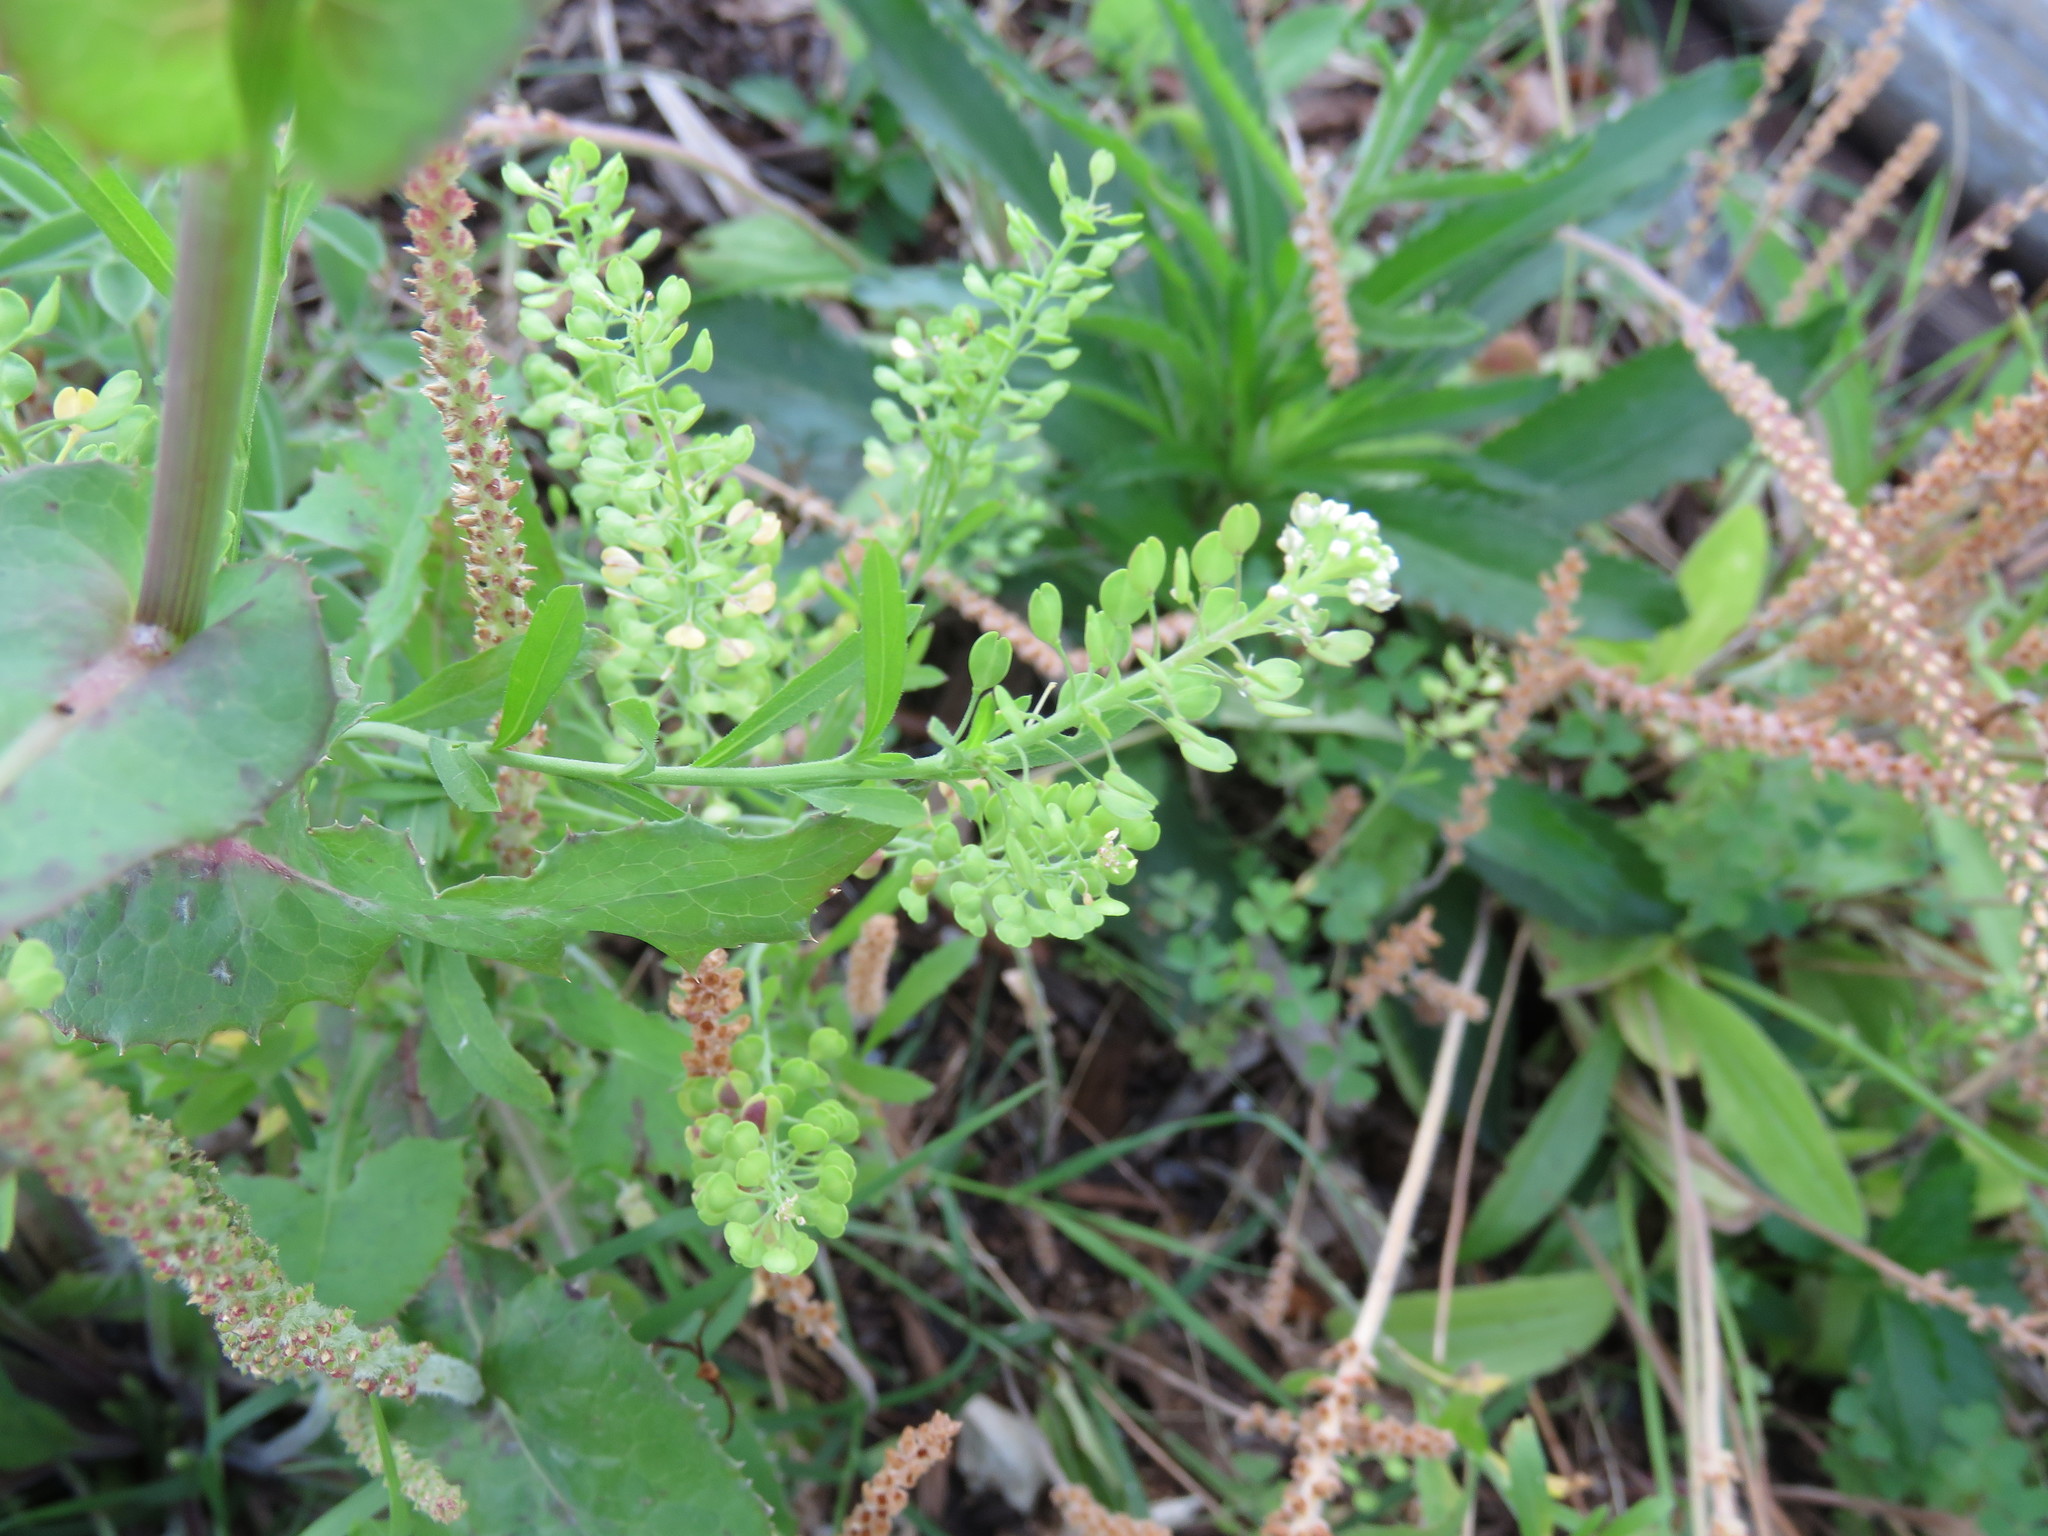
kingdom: Plantae
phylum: Tracheophyta
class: Magnoliopsida
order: Brassicales
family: Brassicaceae
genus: Lepidium
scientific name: Lepidium virginicum
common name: Least pepperwort
